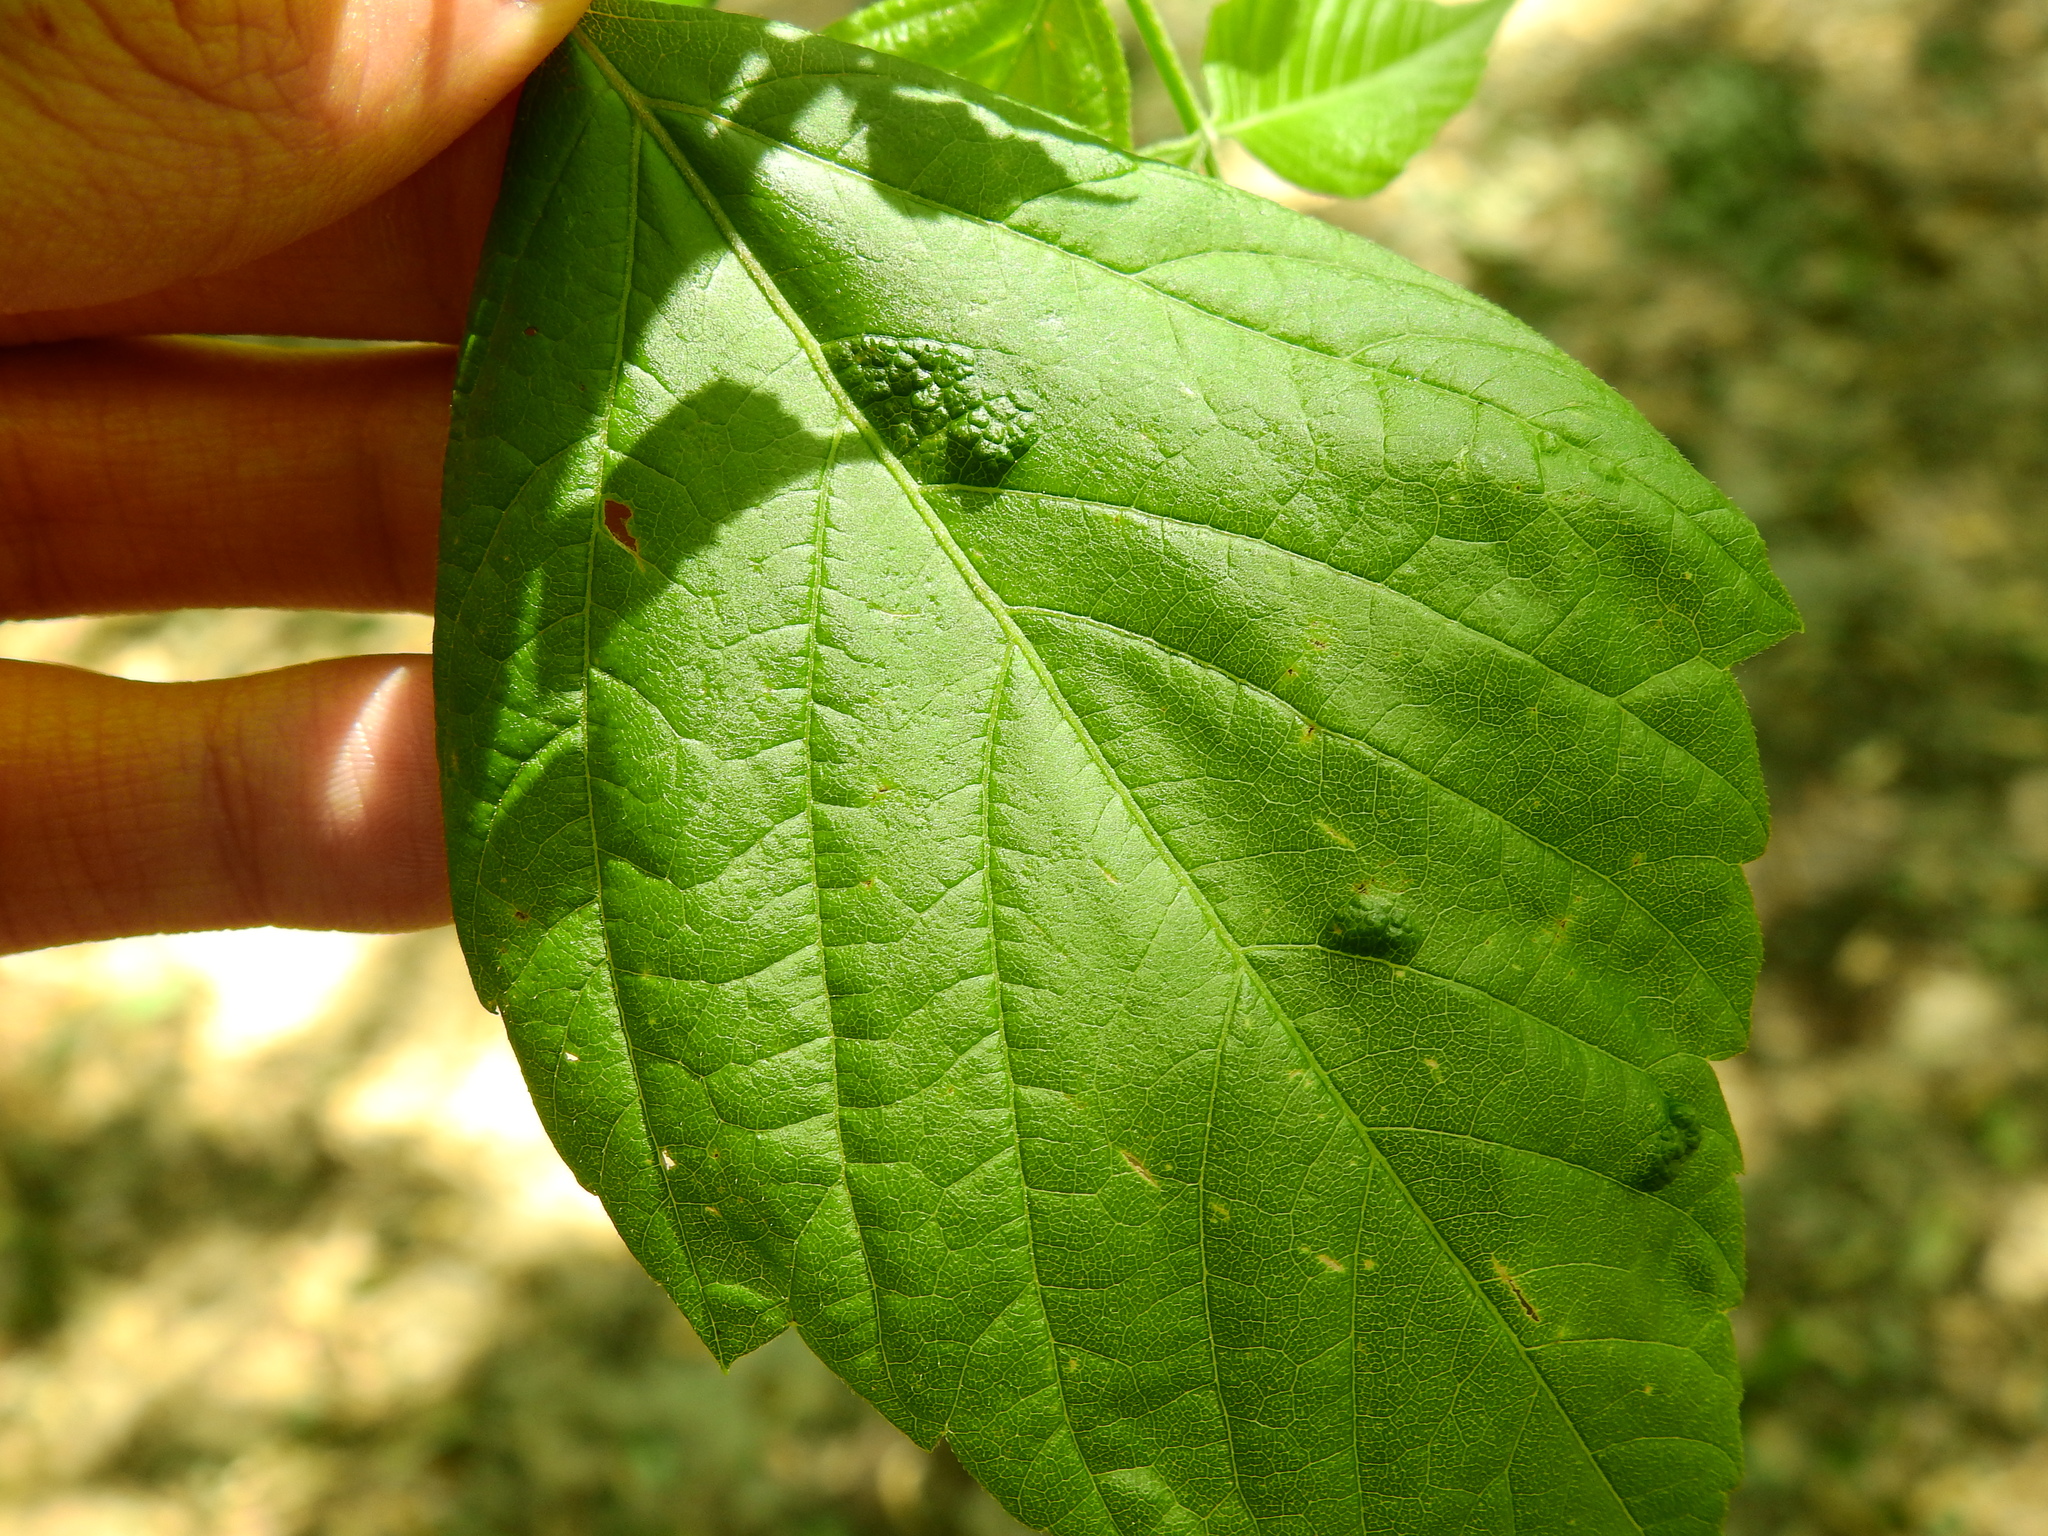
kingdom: Animalia
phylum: Arthropoda
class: Arachnida
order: Trombidiformes
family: Eriophyidae
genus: Aceria
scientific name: Aceria
